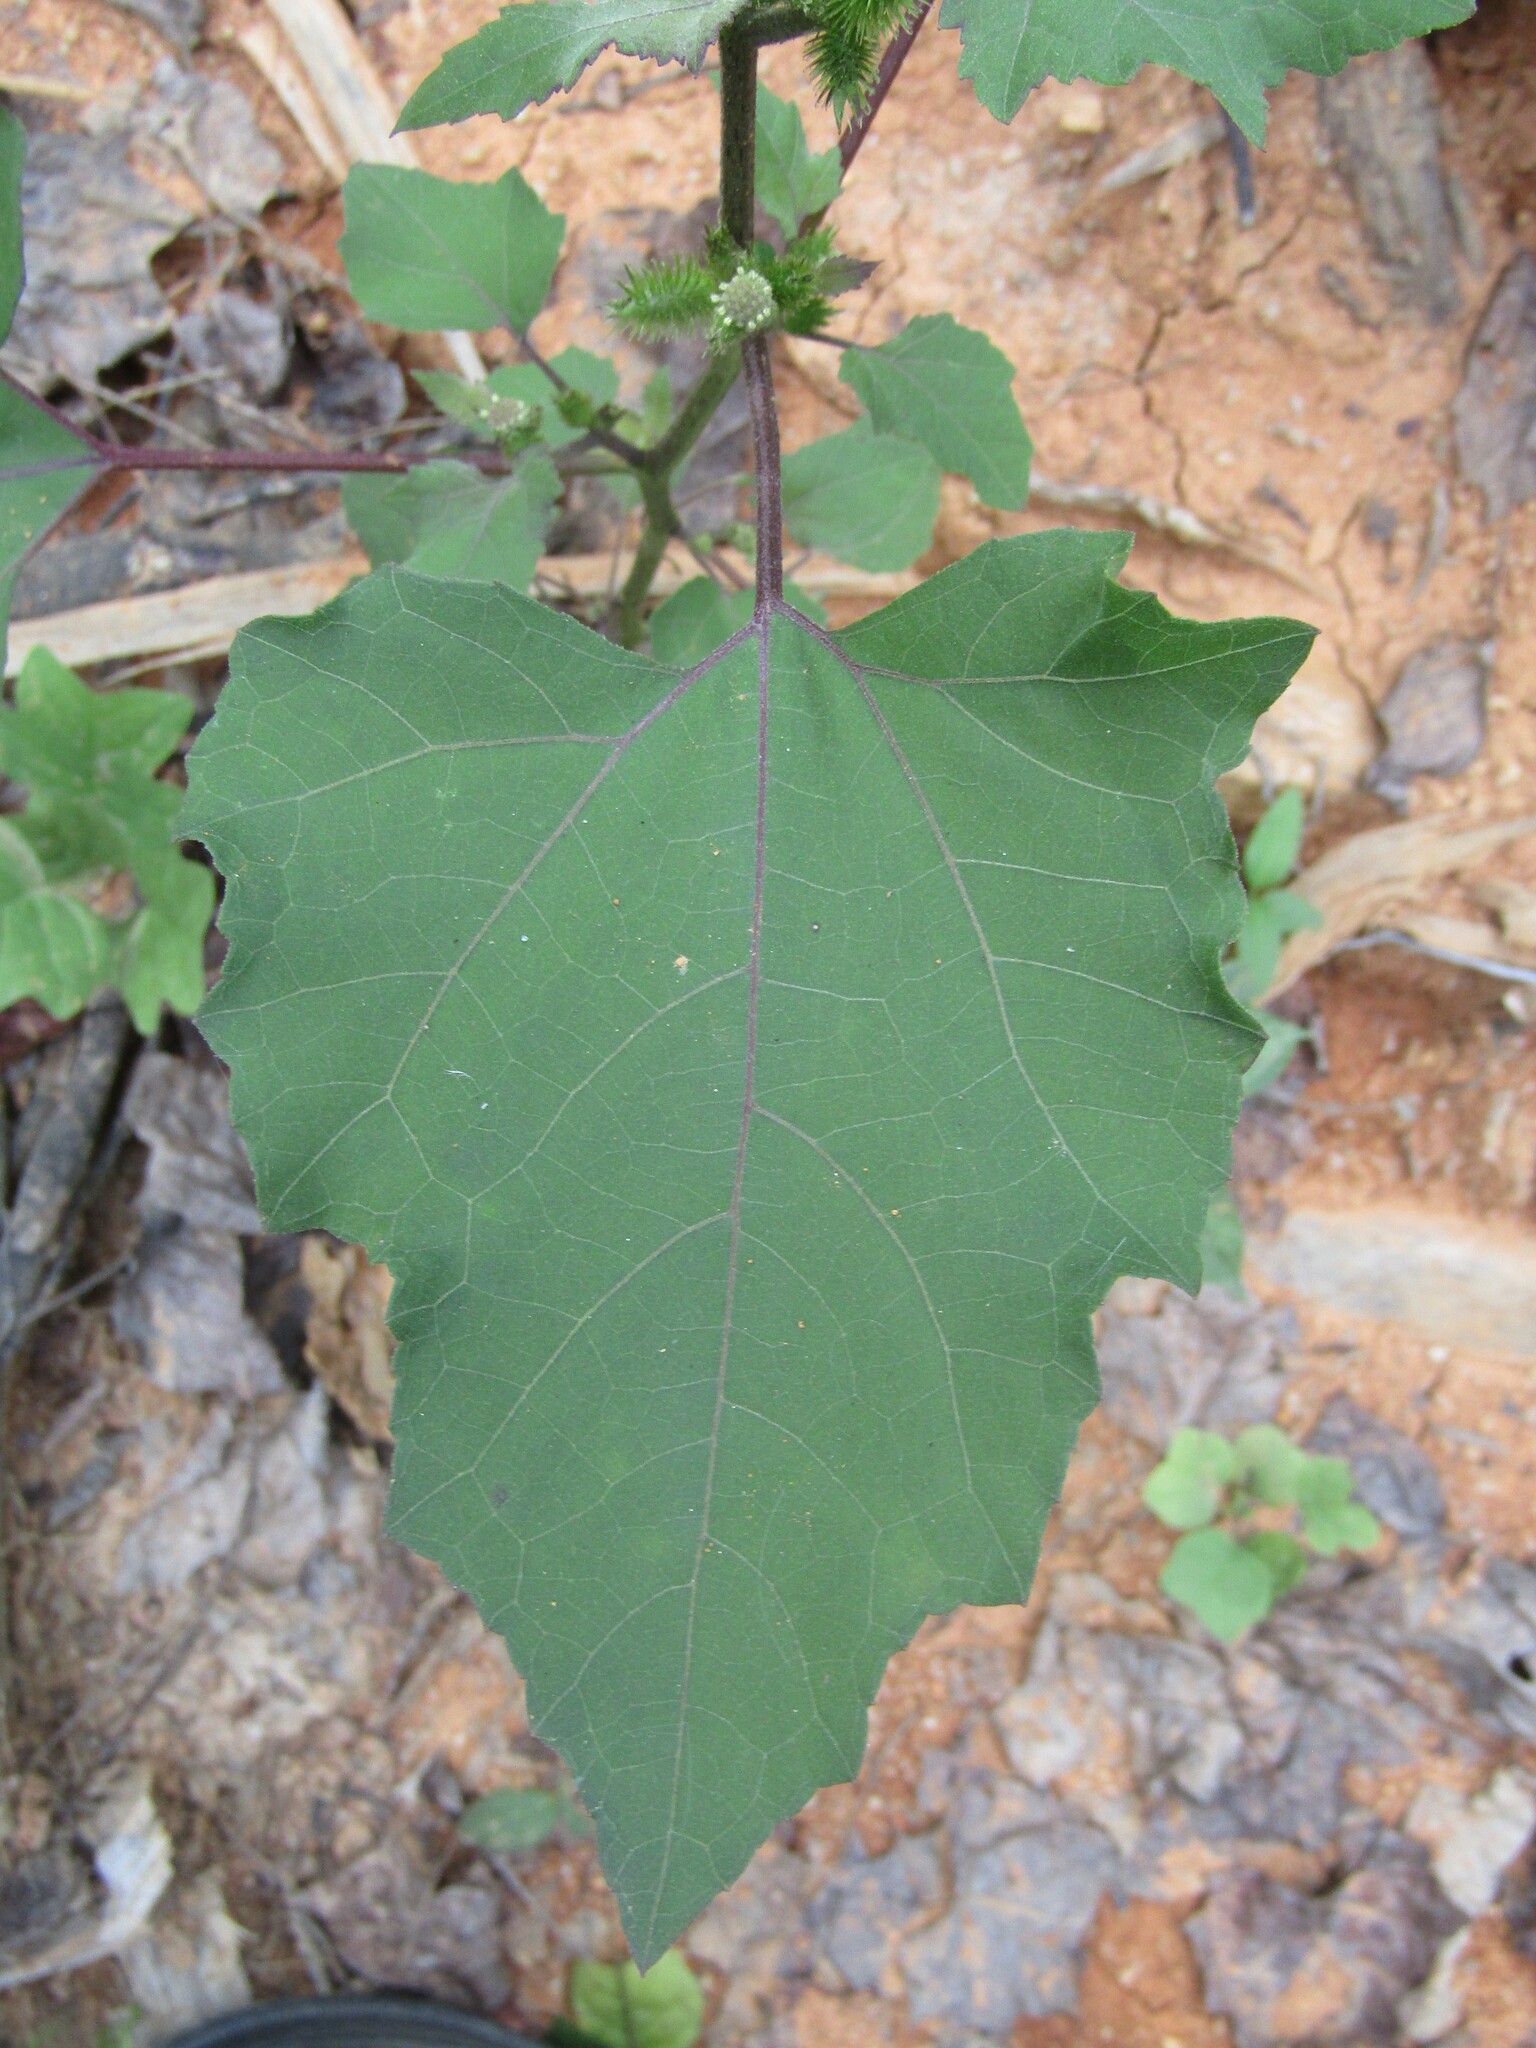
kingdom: Plantae
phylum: Tracheophyta
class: Magnoliopsida
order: Asterales
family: Asteraceae
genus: Xanthium
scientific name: Xanthium strumarium
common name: Rough cocklebur
